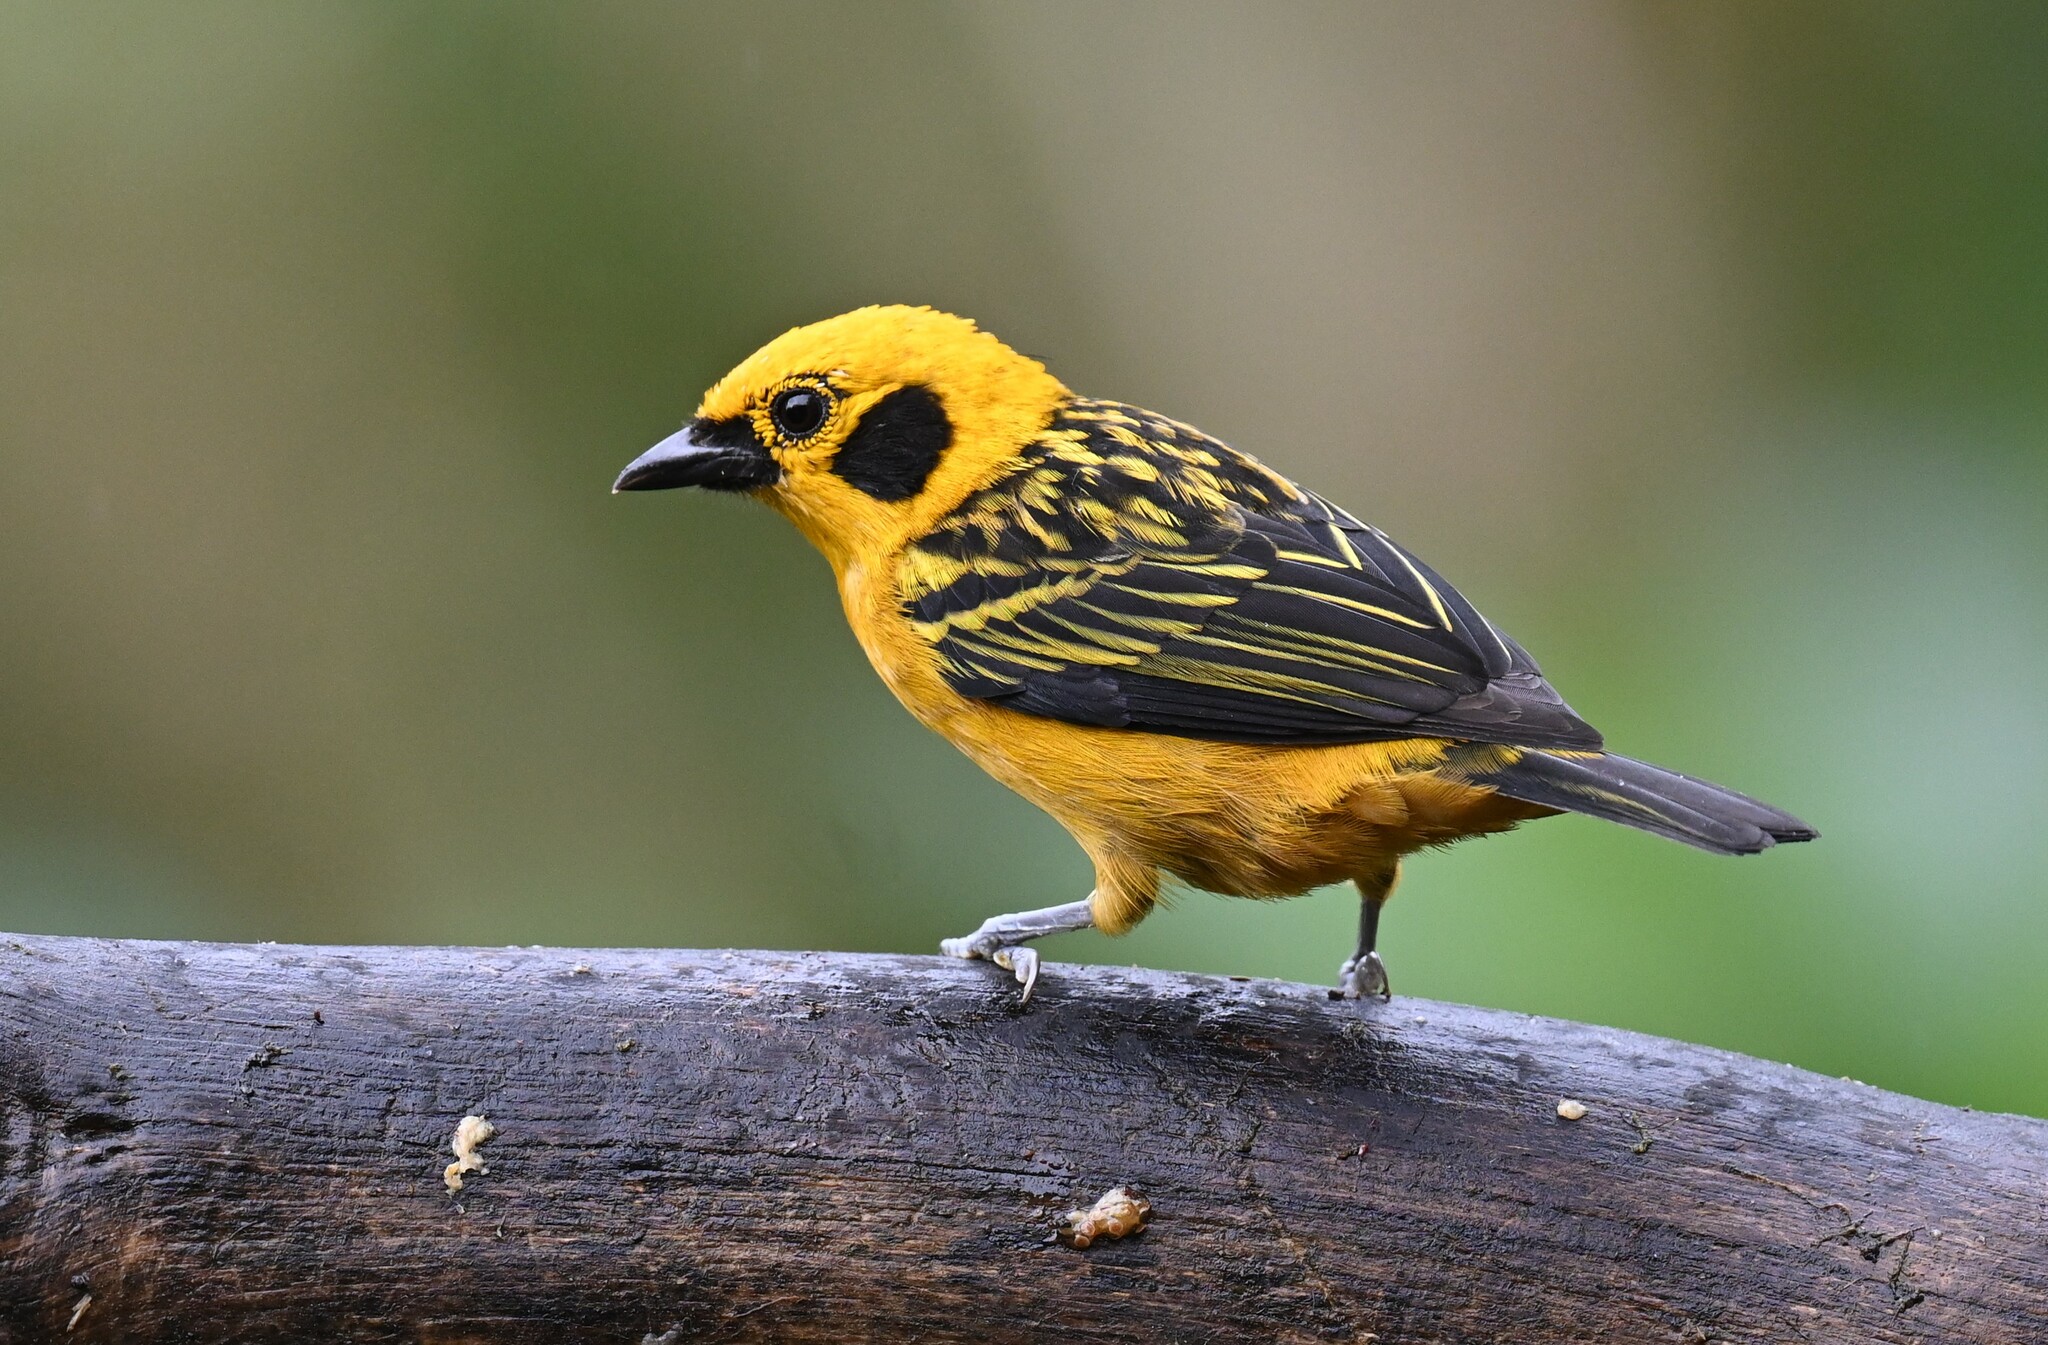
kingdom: Animalia
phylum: Chordata
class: Aves
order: Passeriformes
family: Thraupidae
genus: Tangara
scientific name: Tangara arthus
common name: Golden tanager
